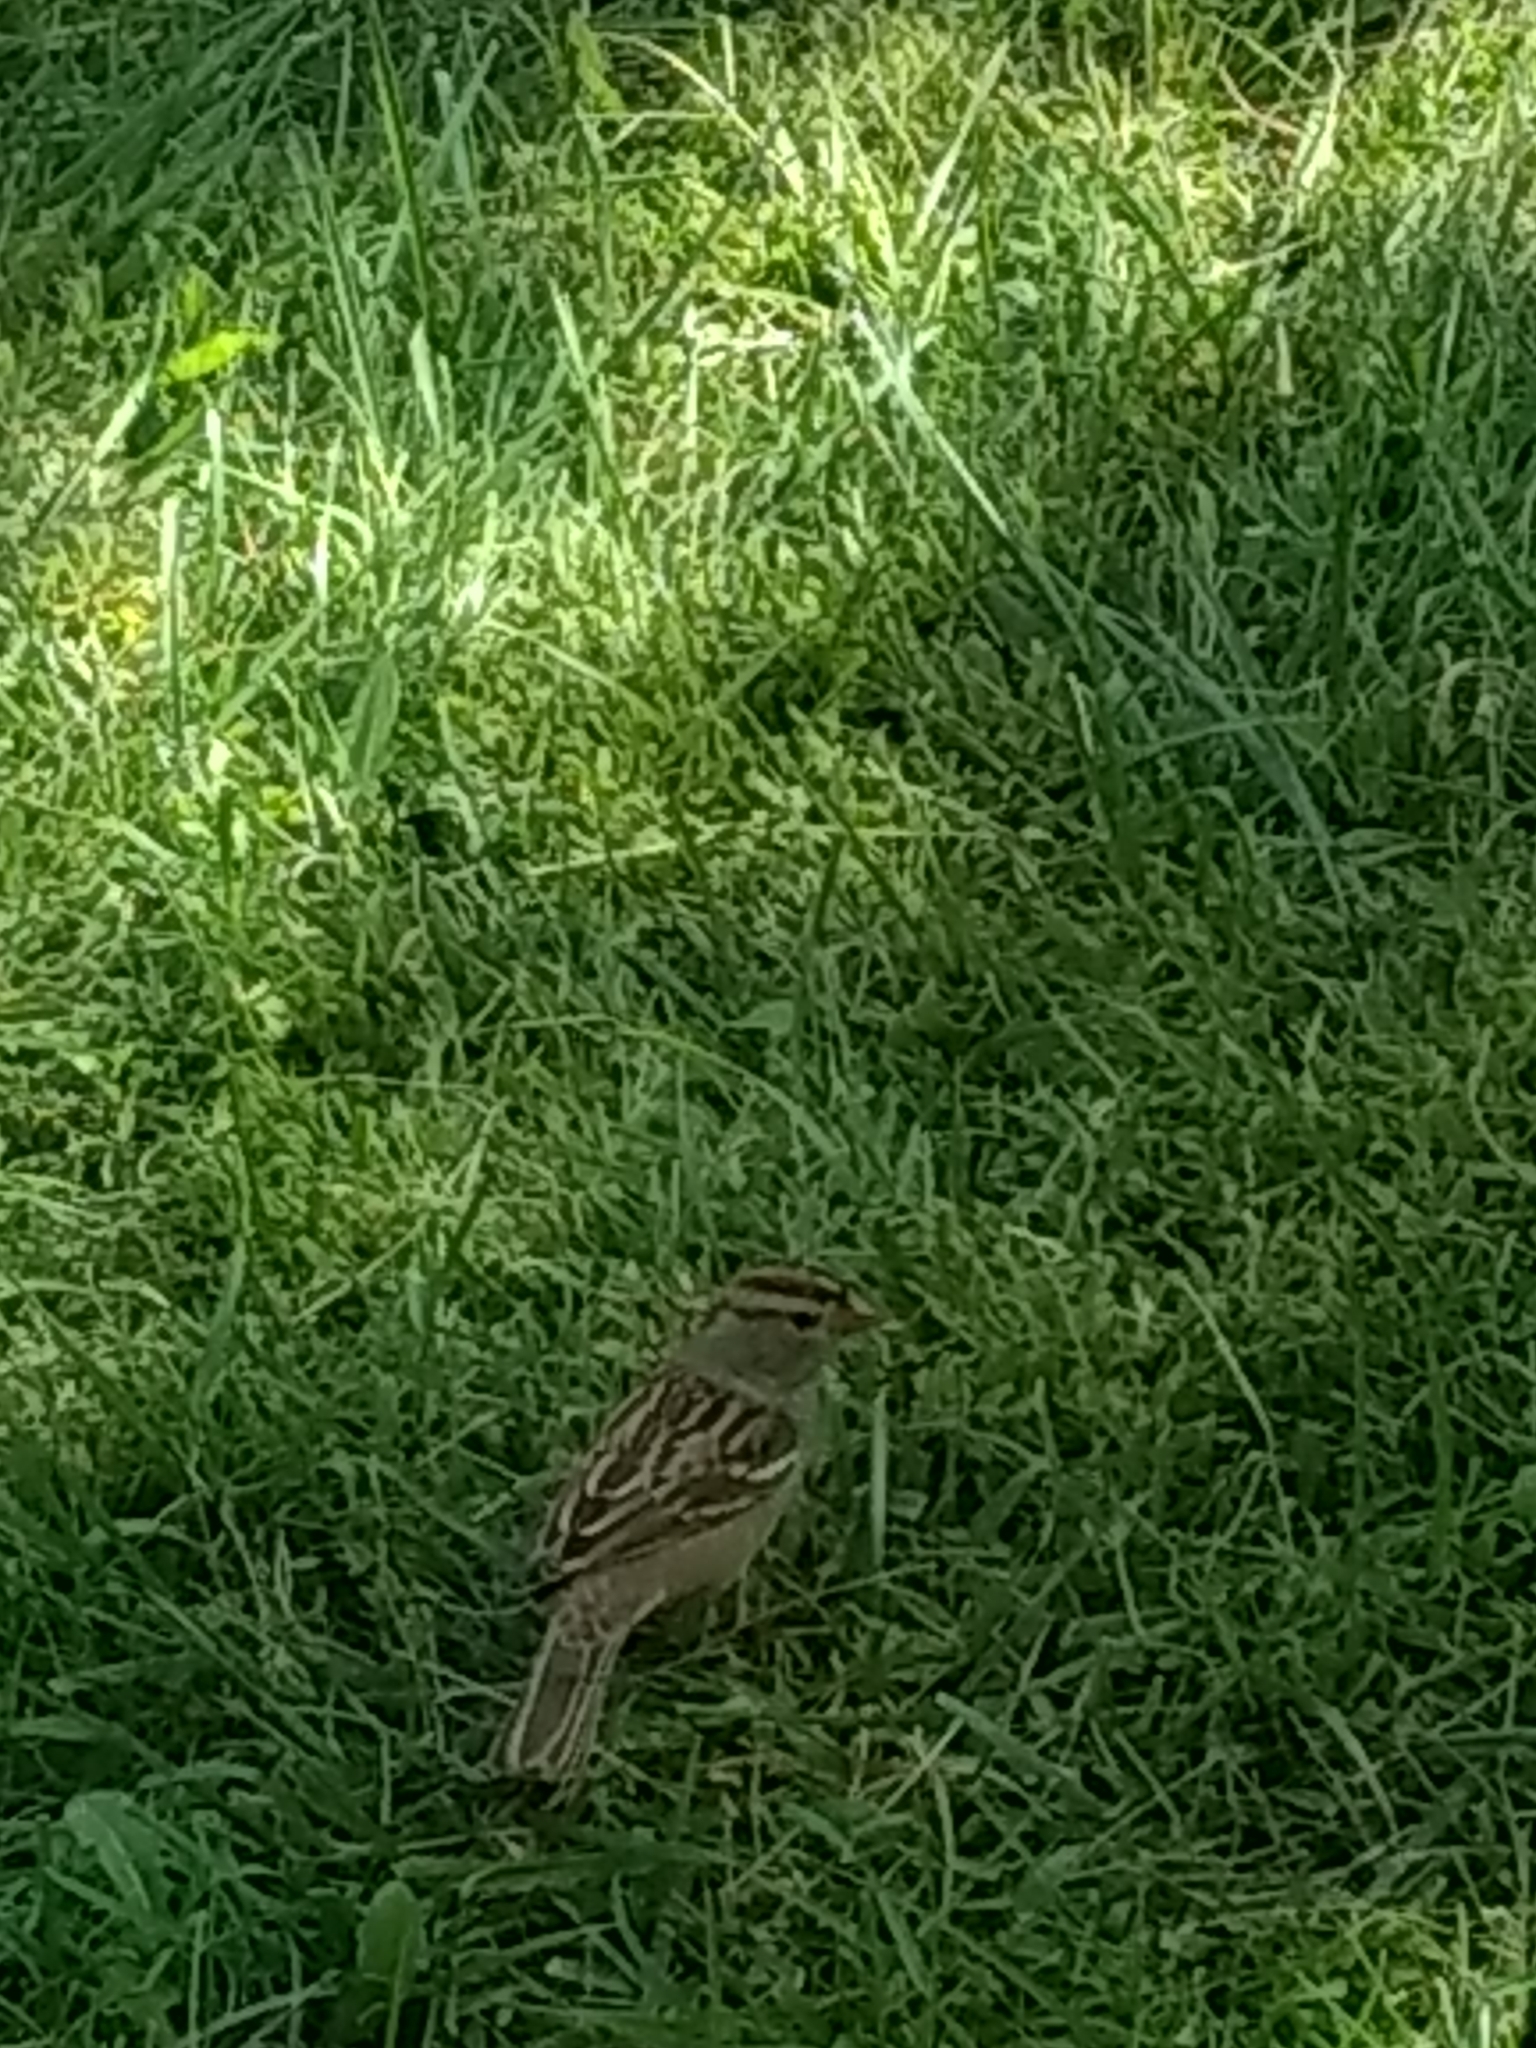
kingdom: Animalia
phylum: Chordata
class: Aves
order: Passeriformes
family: Passerellidae
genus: Zonotrichia
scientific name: Zonotrichia leucophrys
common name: White-crowned sparrow
